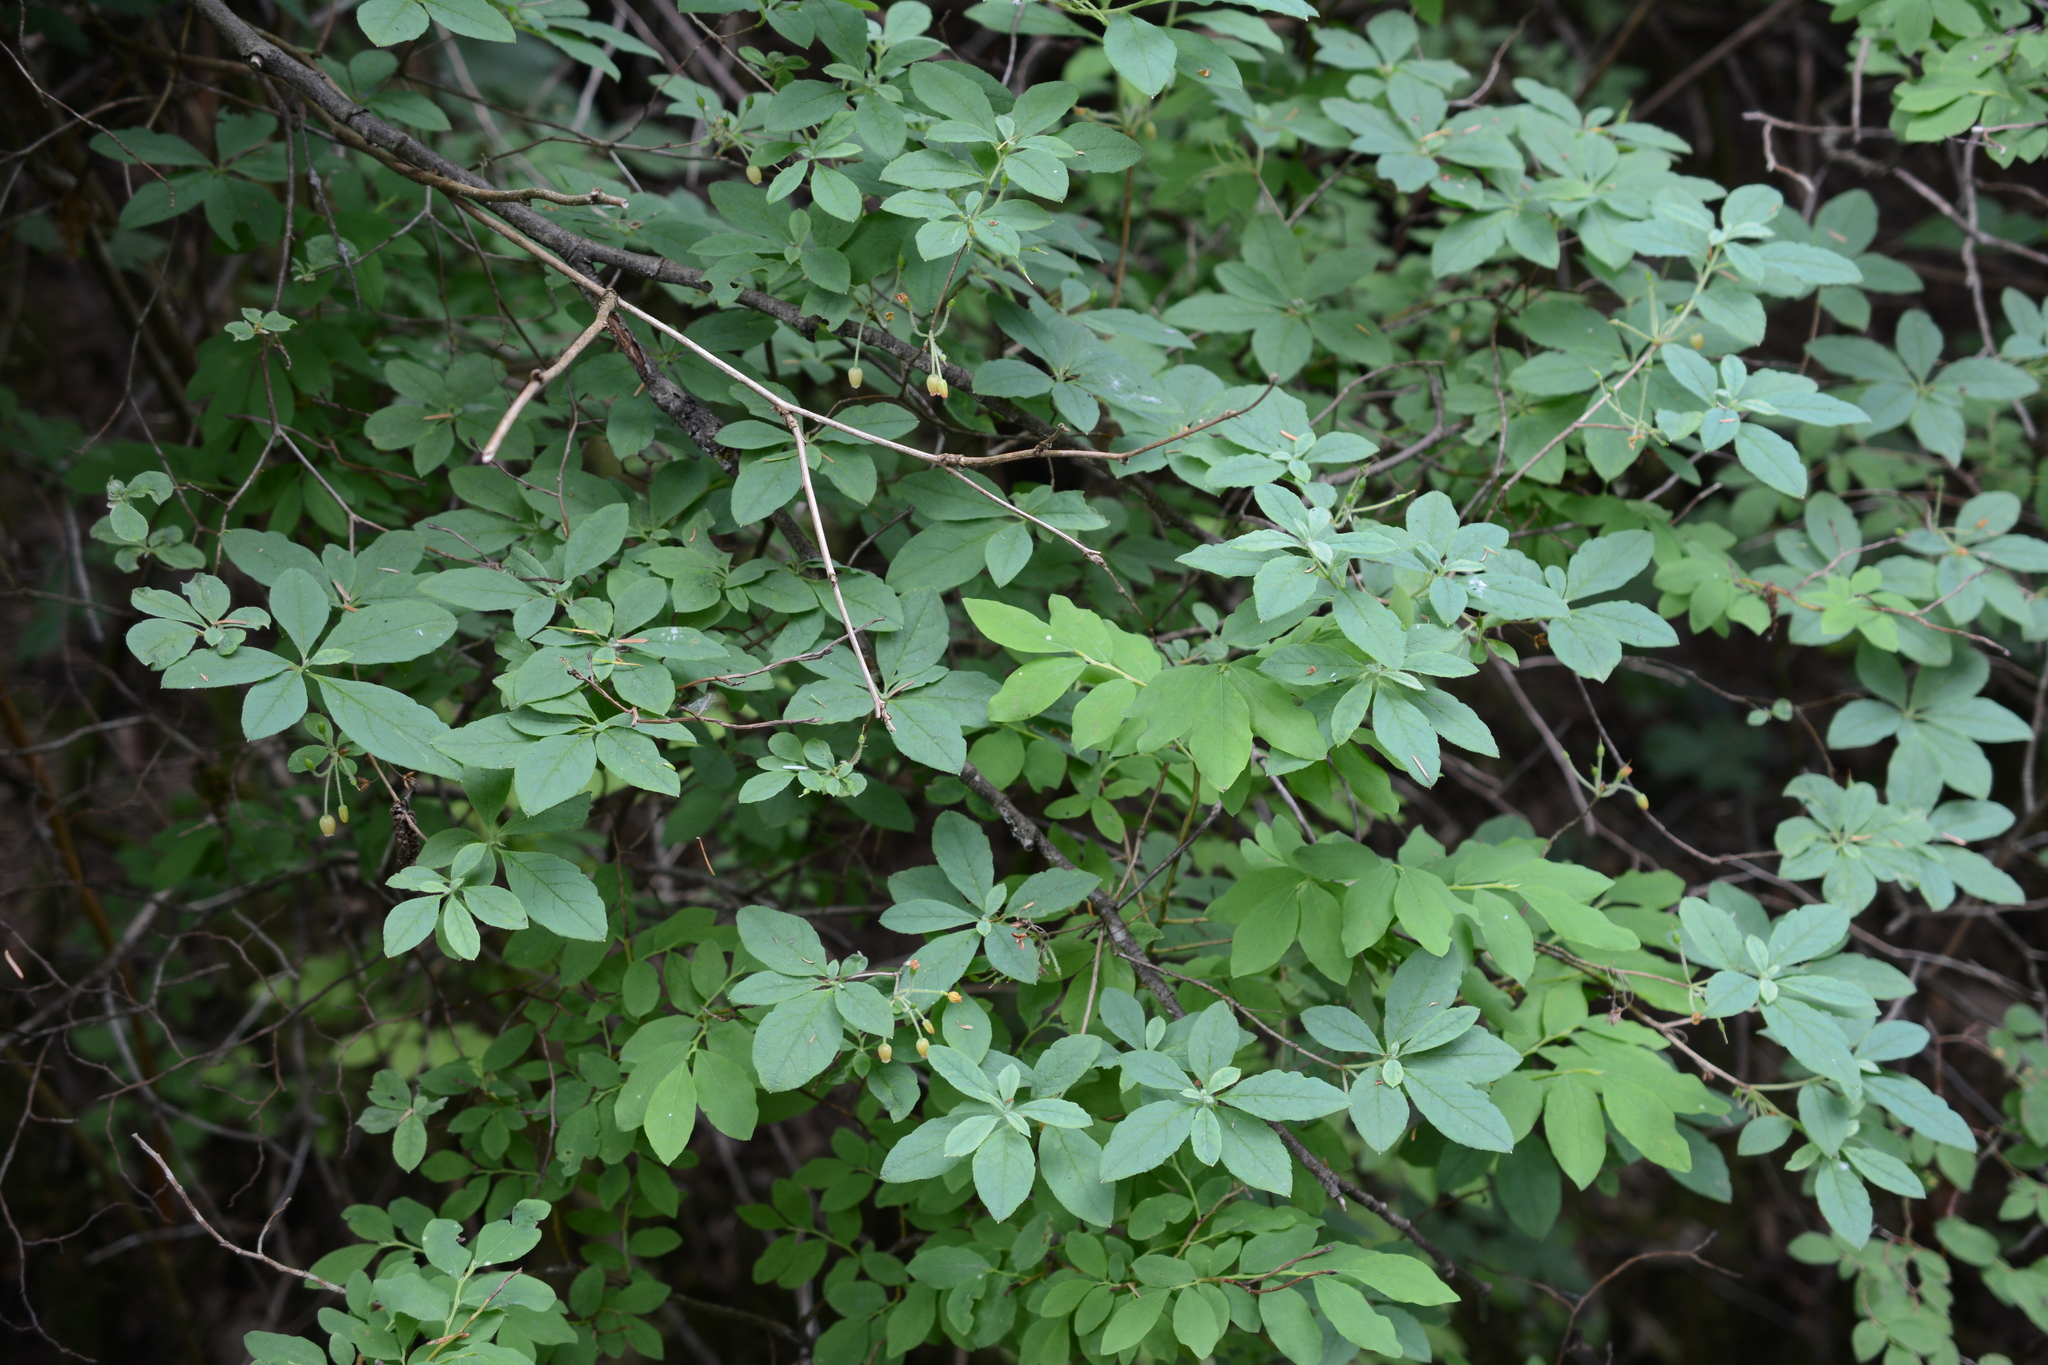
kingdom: Plantae
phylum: Tracheophyta
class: Magnoliopsida
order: Ericales
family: Ericaceae
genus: Rhododendron
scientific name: Rhododendron menziesii
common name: Pacific menziesia
